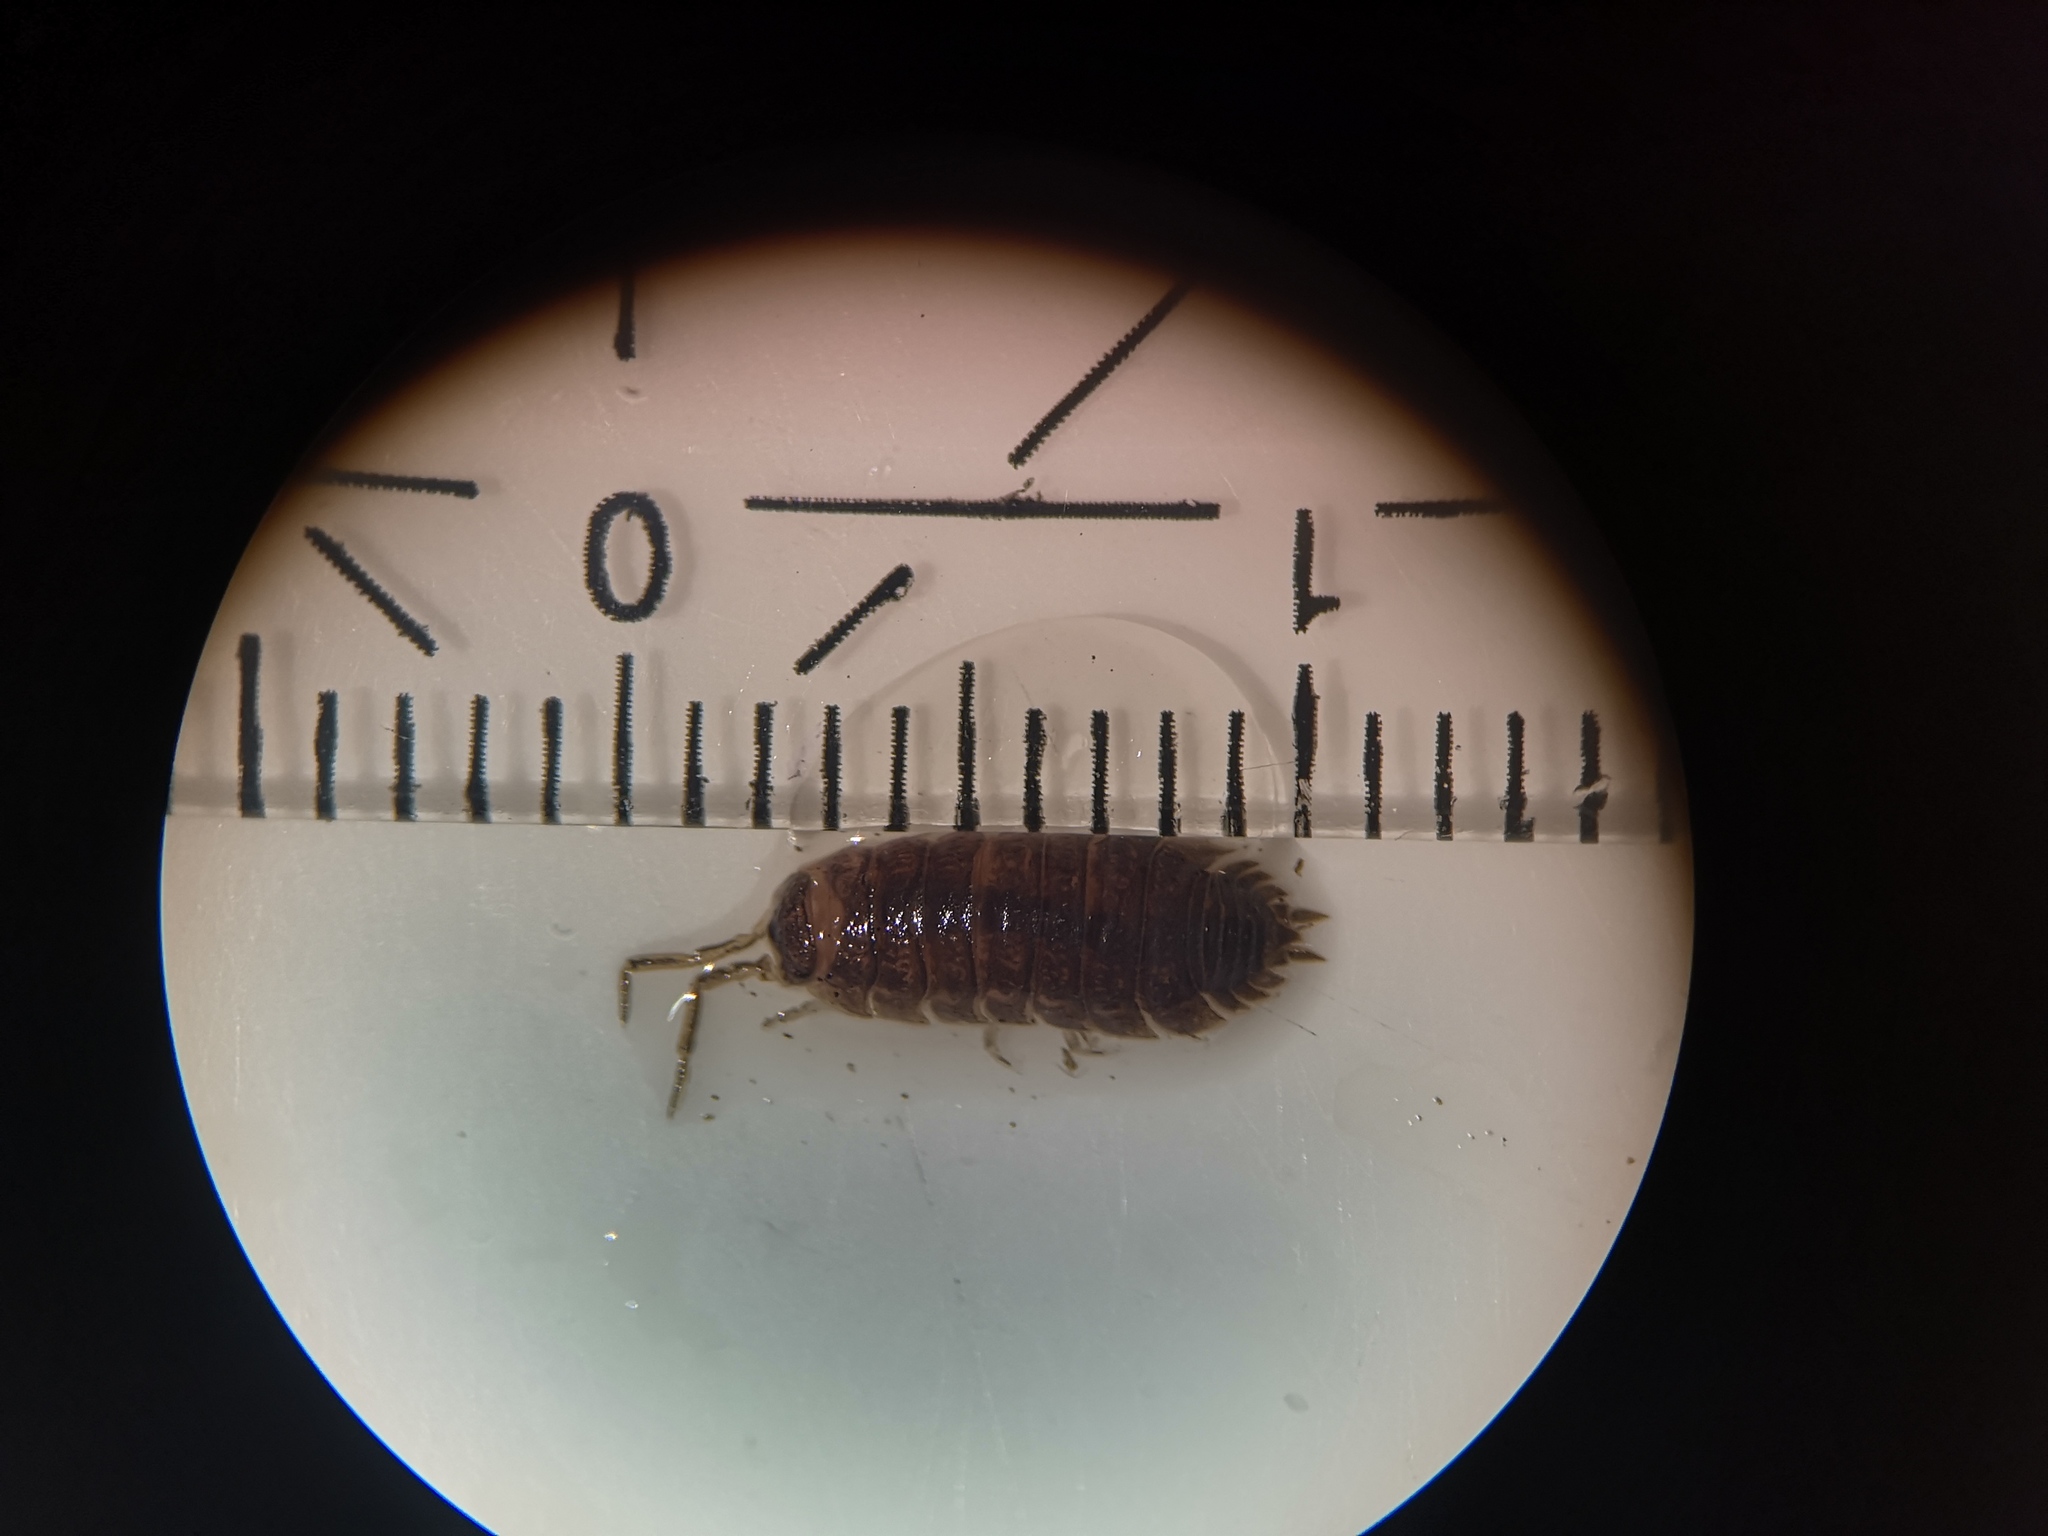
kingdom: Animalia
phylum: Arthropoda
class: Malacostraca
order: Isopoda
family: Porcellionidae
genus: Porcellio
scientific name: Porcellio scaber
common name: Common rough woodlouse
